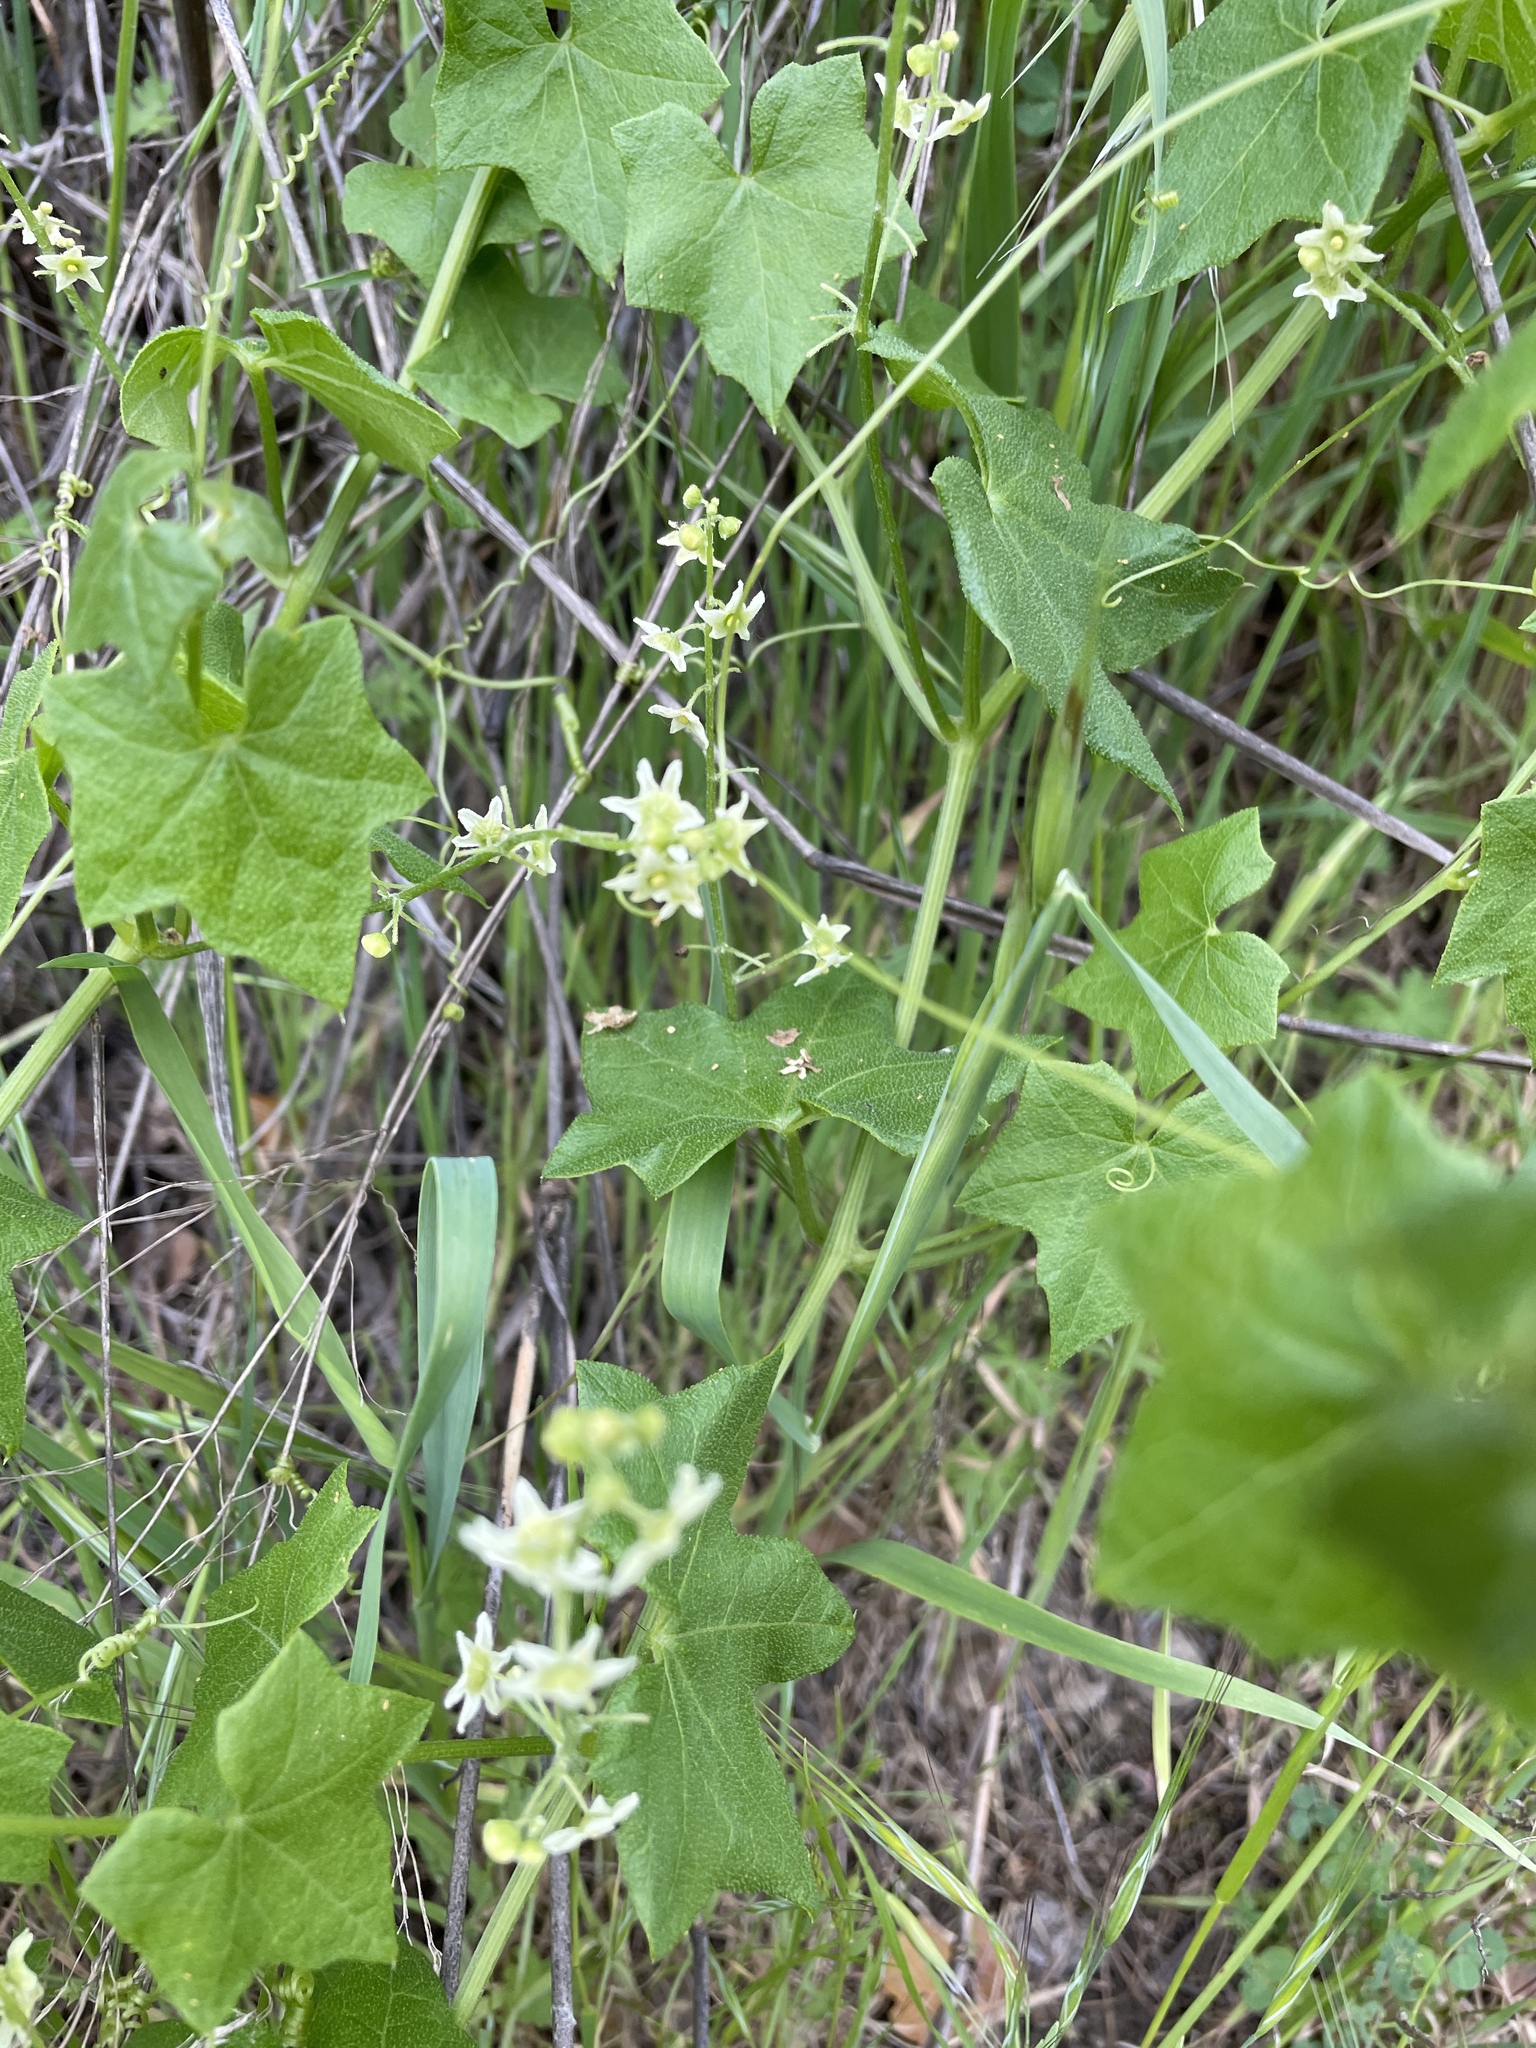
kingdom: Plantae
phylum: Tracheophyta
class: Magnoliopsida
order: Cucurbitales
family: Cucurbitaceae
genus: Marah
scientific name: Marah fabacea
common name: California manroot
